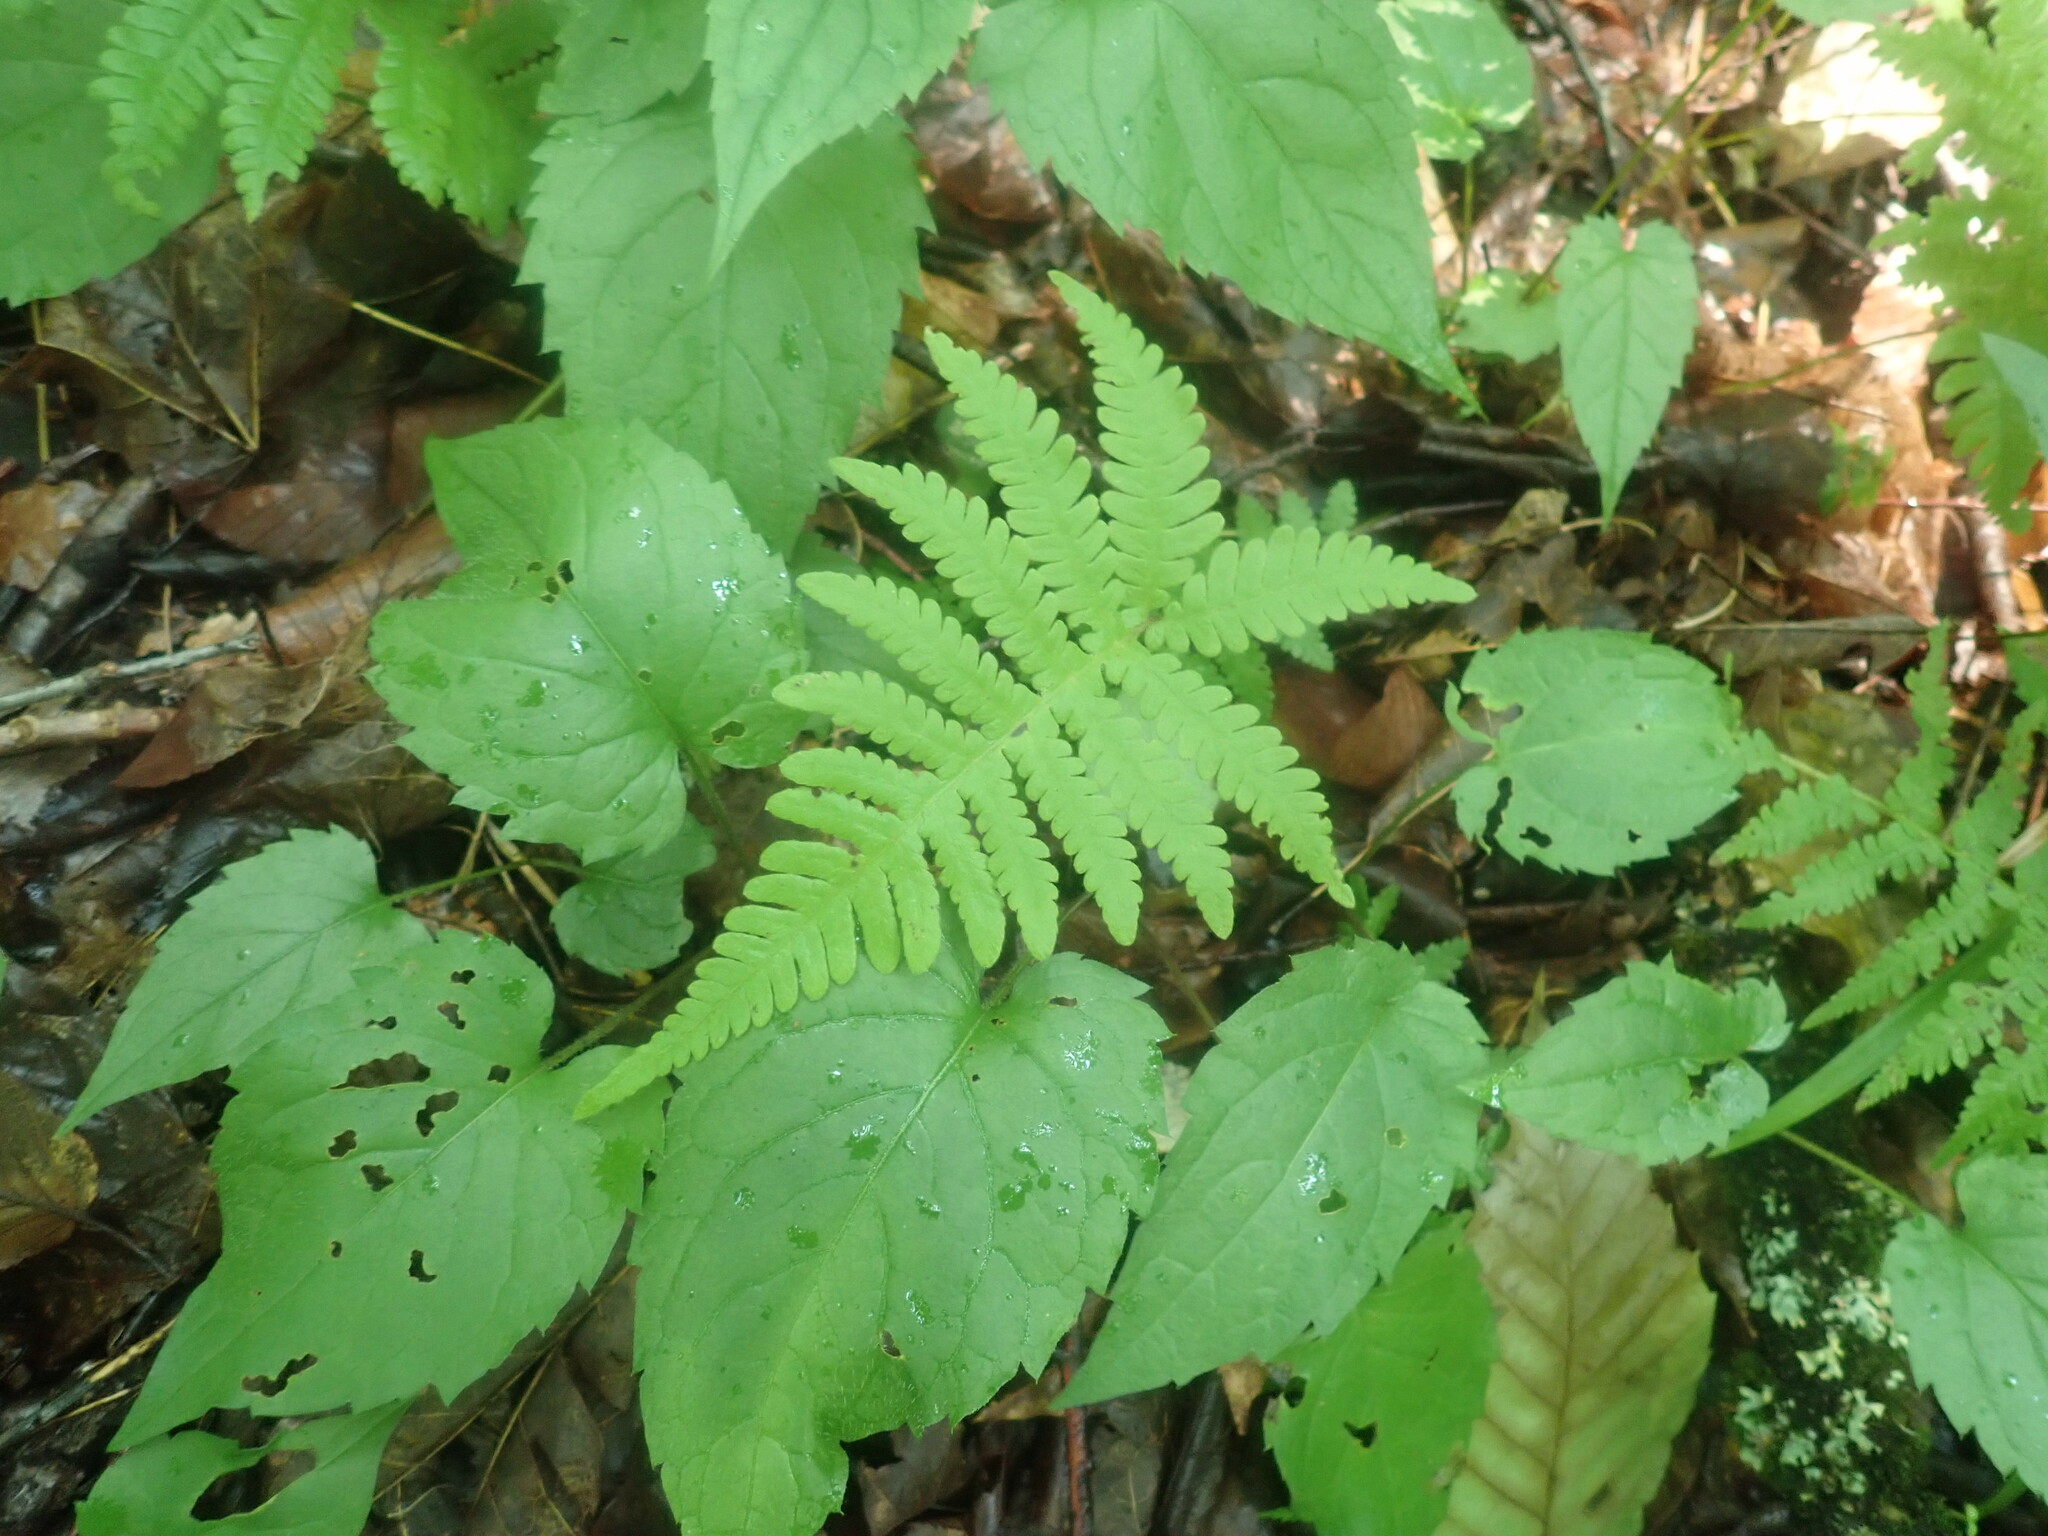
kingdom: Plantae
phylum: Tracheophyta
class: Polypodiopsida
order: Polypodiales
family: Thelypteridaceae
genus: Phegopteris
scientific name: Phegopteris connectilis
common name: Beech fern
